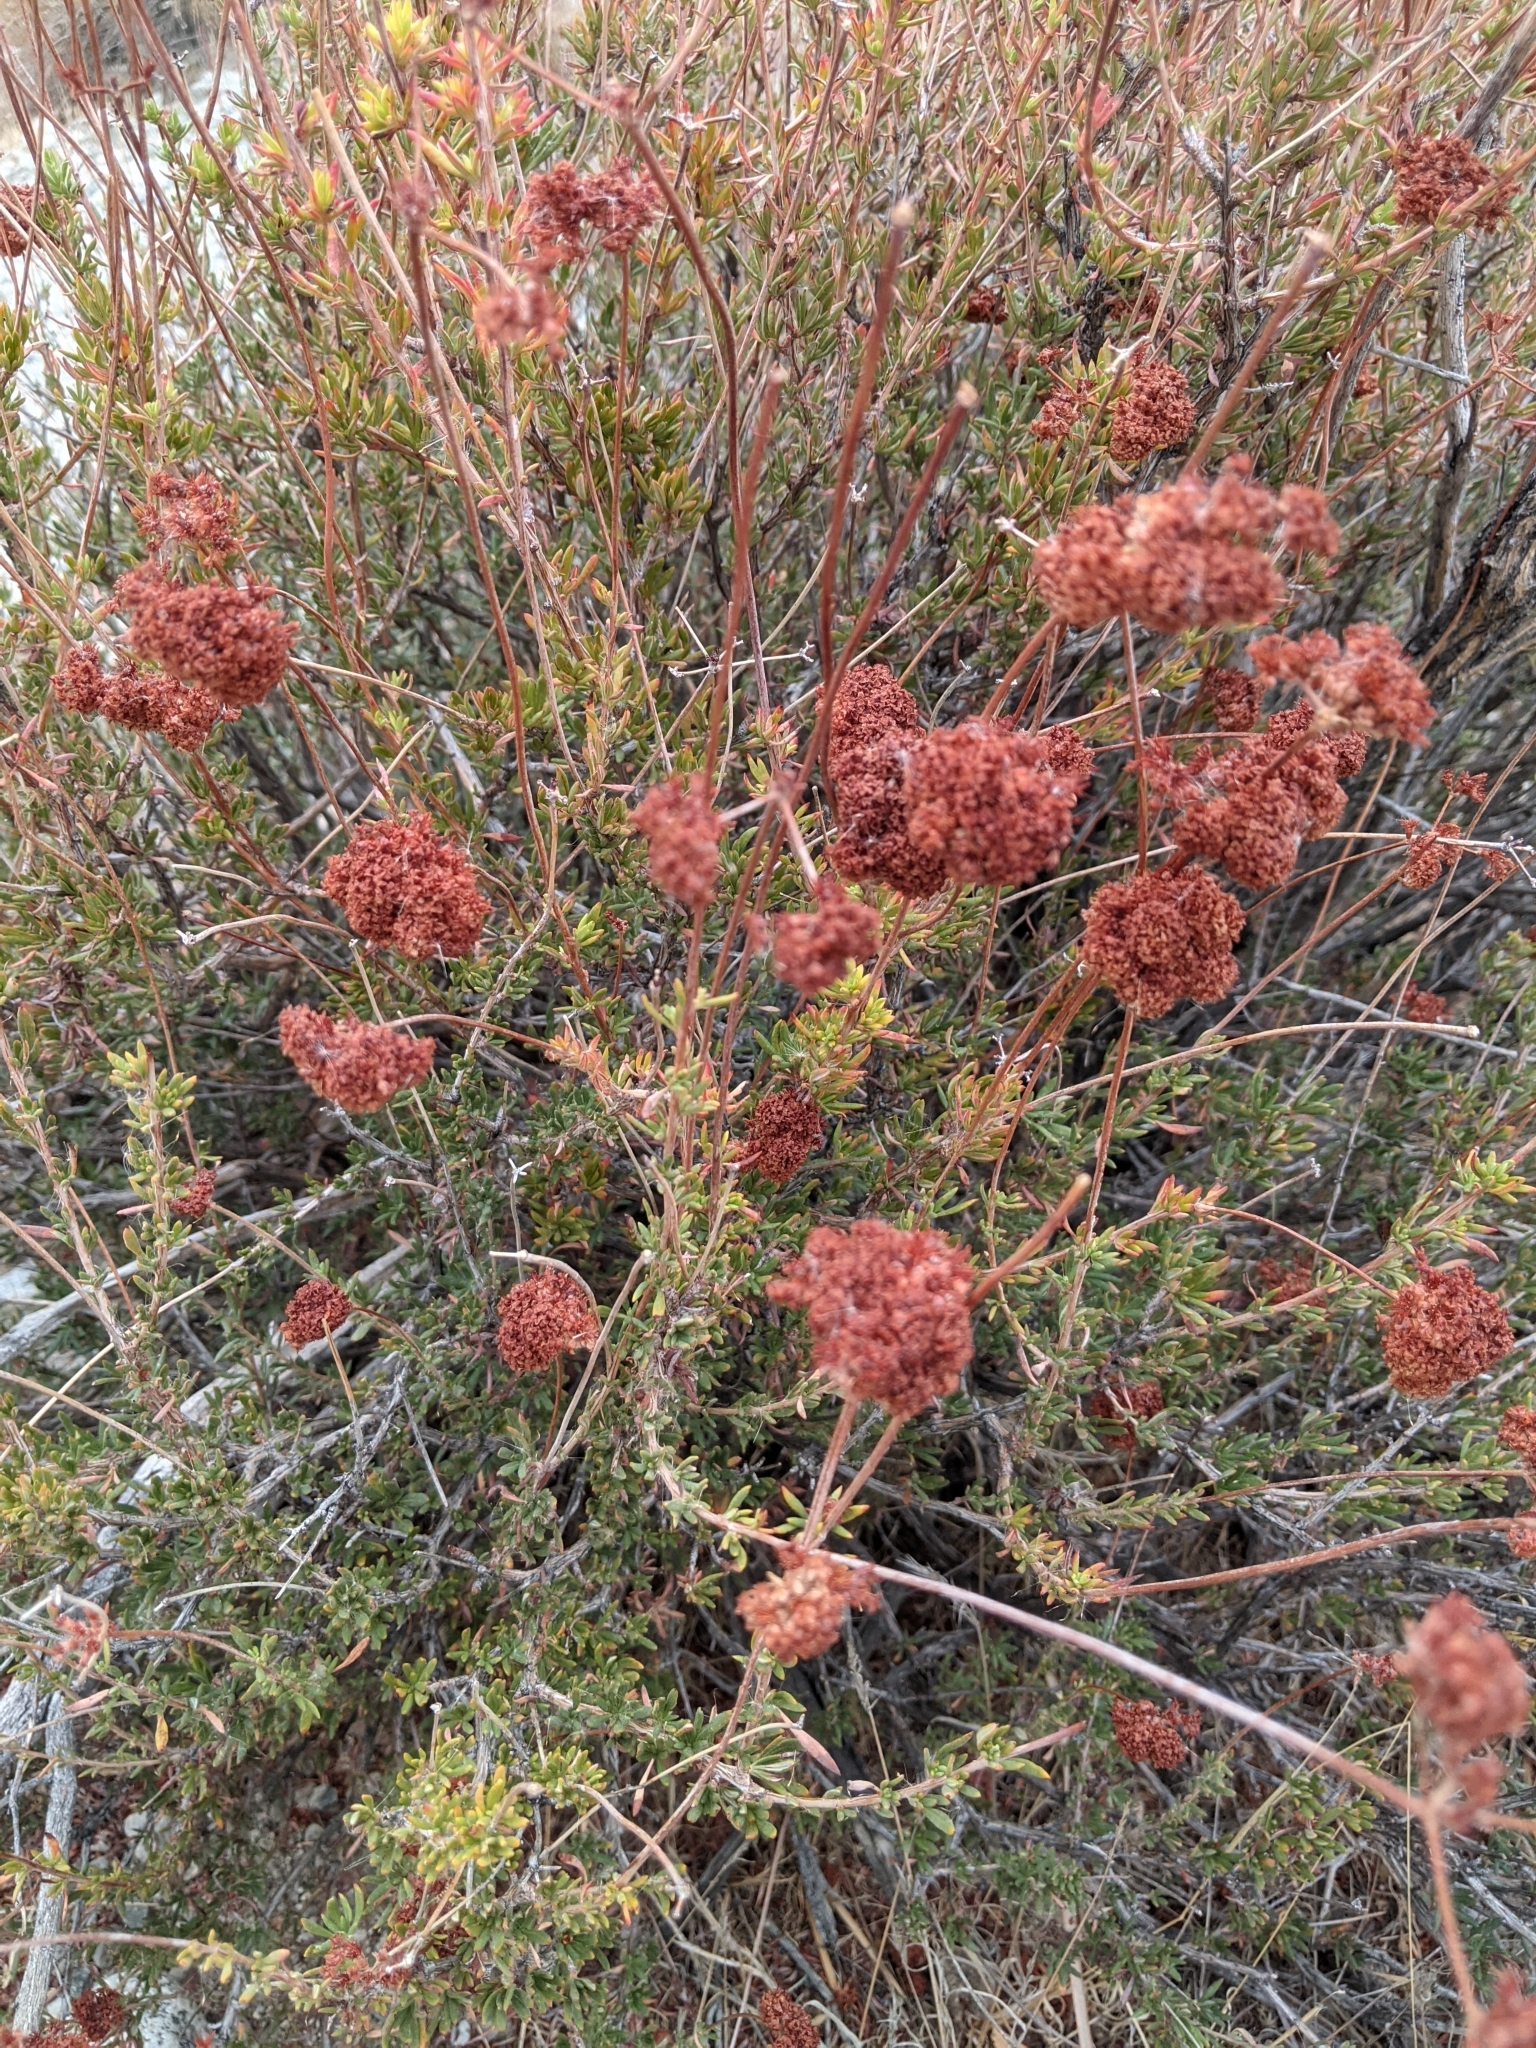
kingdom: Plantae
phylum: Tracheophyta
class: Magnoliopsida
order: Caryophyllales
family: Polygonaceae
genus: Eriogonum
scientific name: Eriogonum fasciculatum
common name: California wild buckwheat
